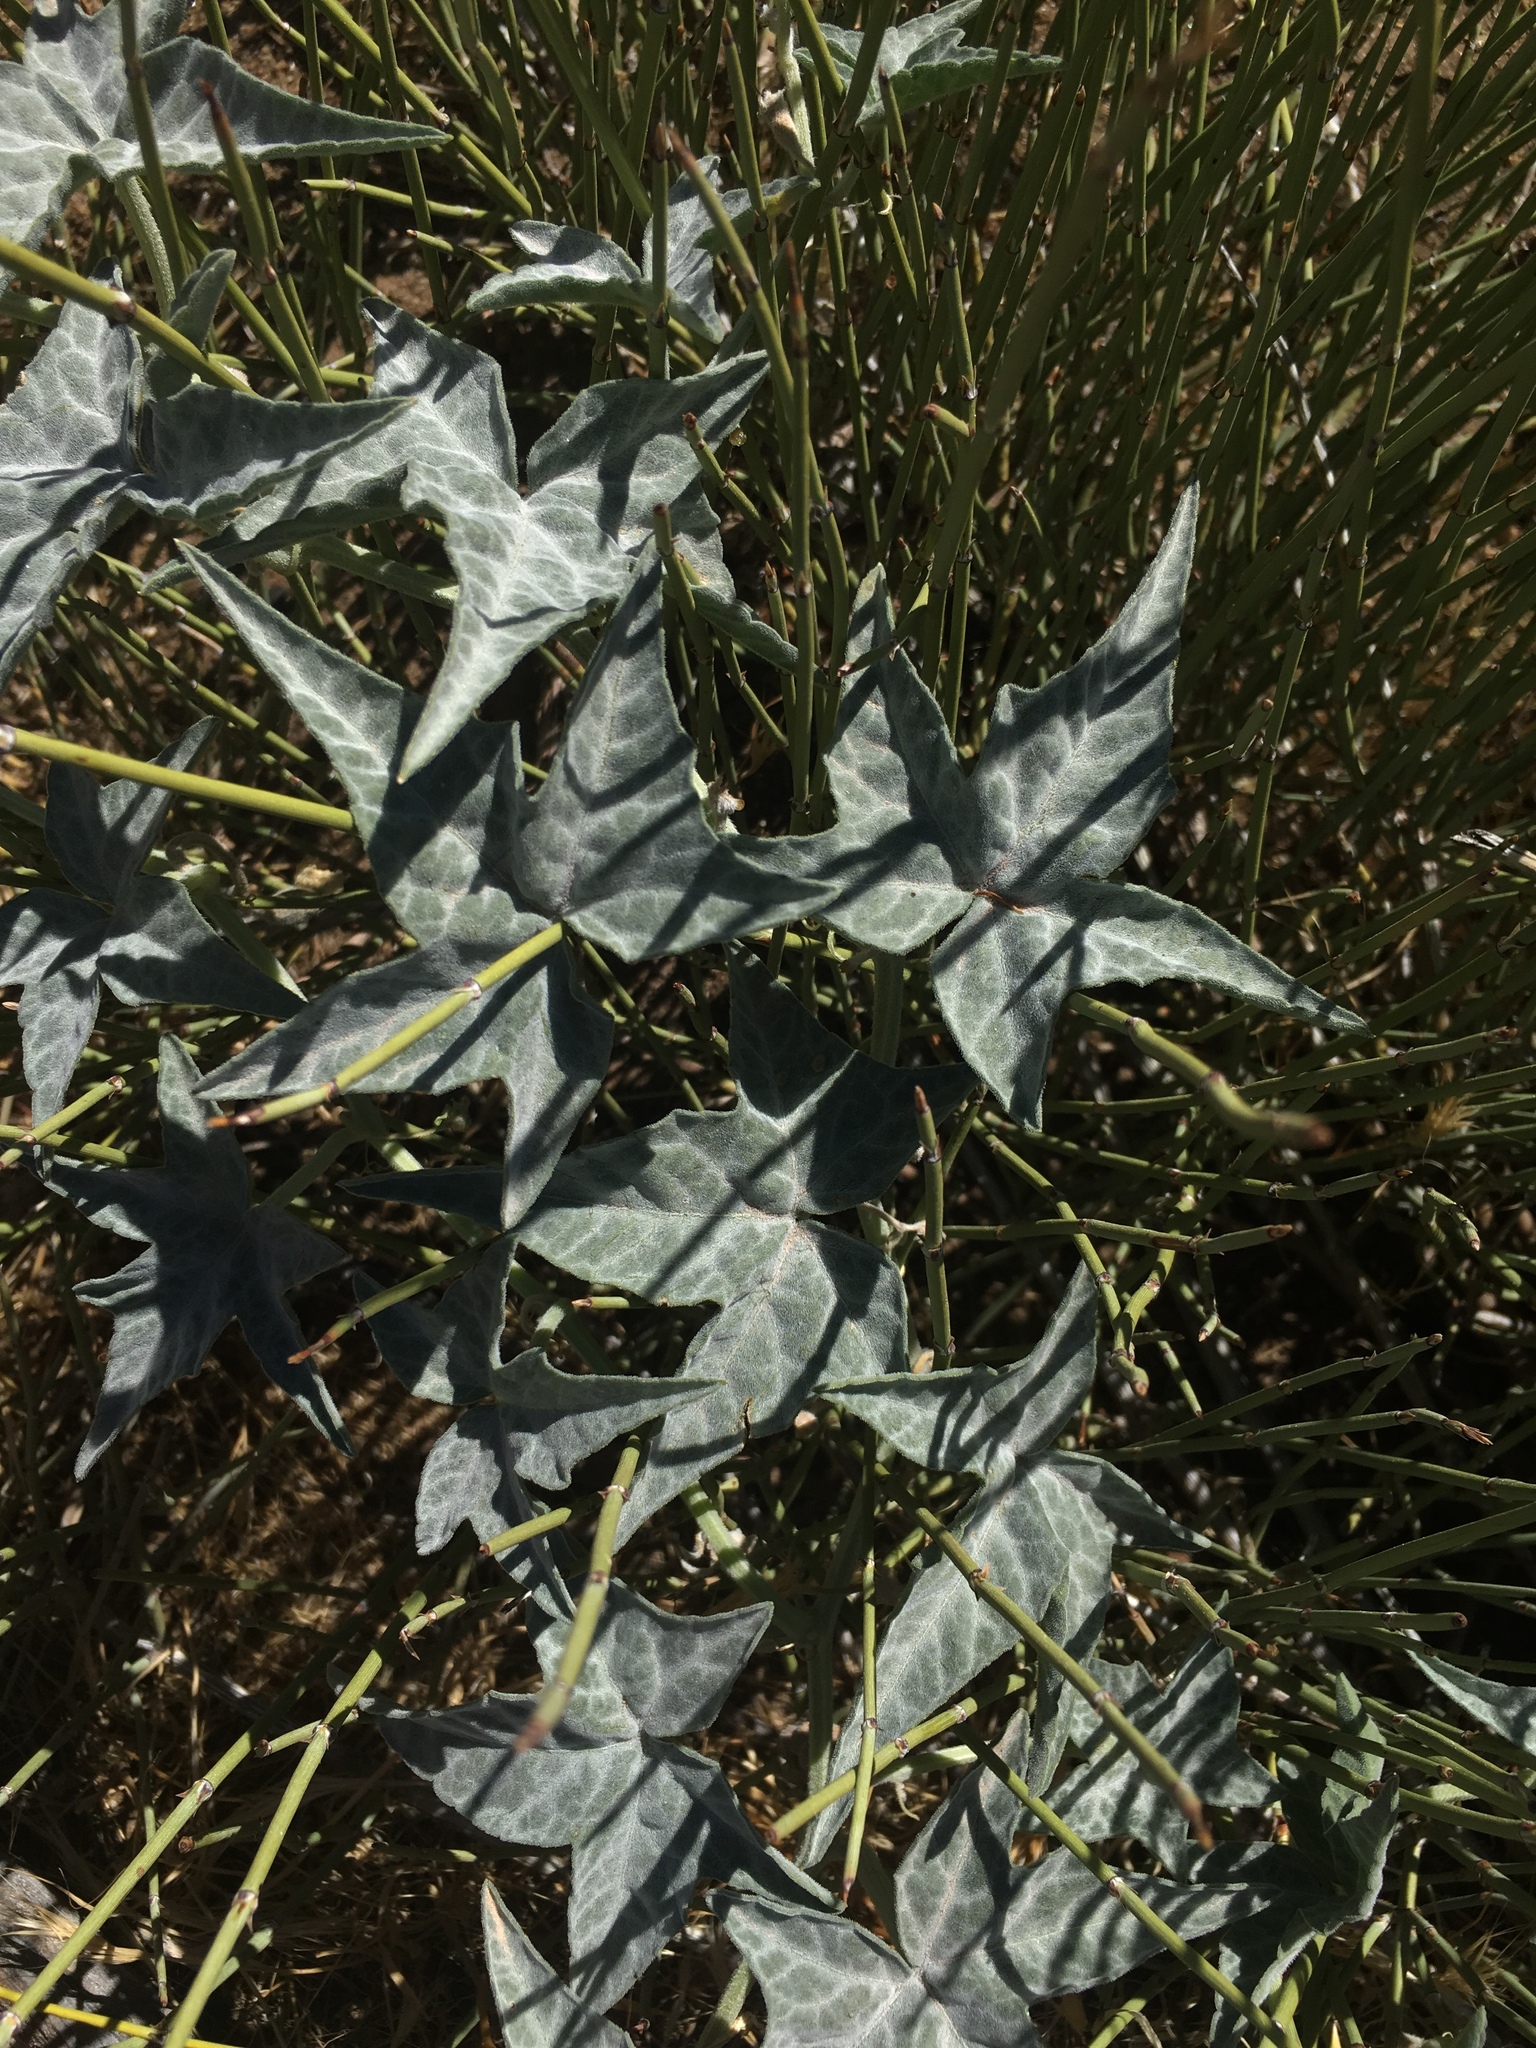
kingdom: Plantae
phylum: Tracheophyta
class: Magnoliopsida
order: Cucurbitales
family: Cucurbitaceae
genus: Cucurbita
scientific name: Cucurbita palmata
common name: Coyote-melon
